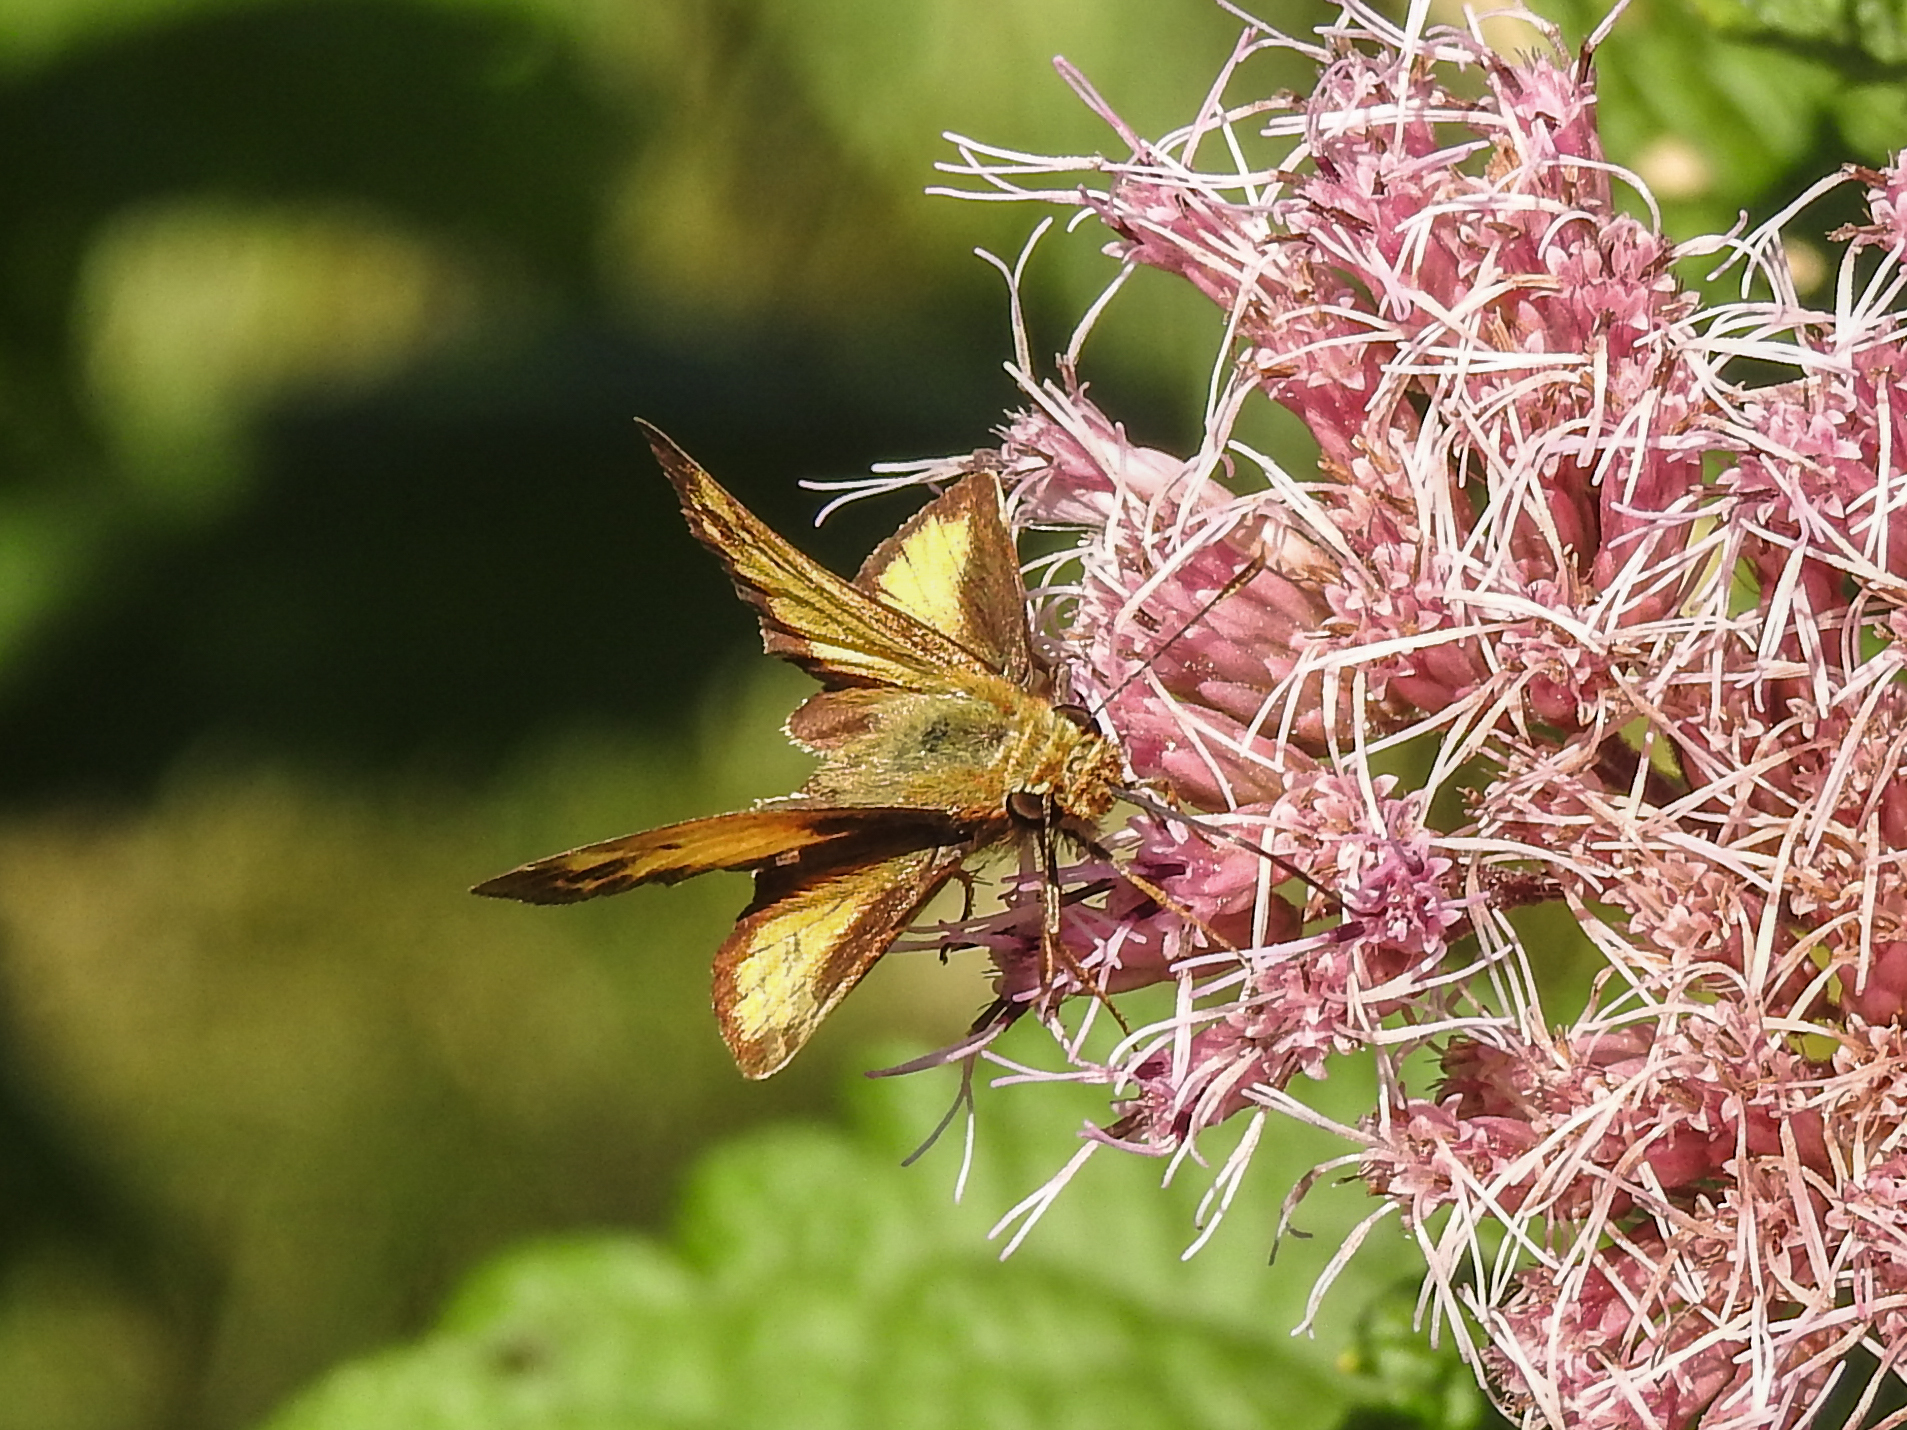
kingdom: Animalia
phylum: Arthropoda
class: Insecta
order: Lepidoptera
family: Hesperiidae
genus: Lon
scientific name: Lon zabulon
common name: Zabulon skipper
